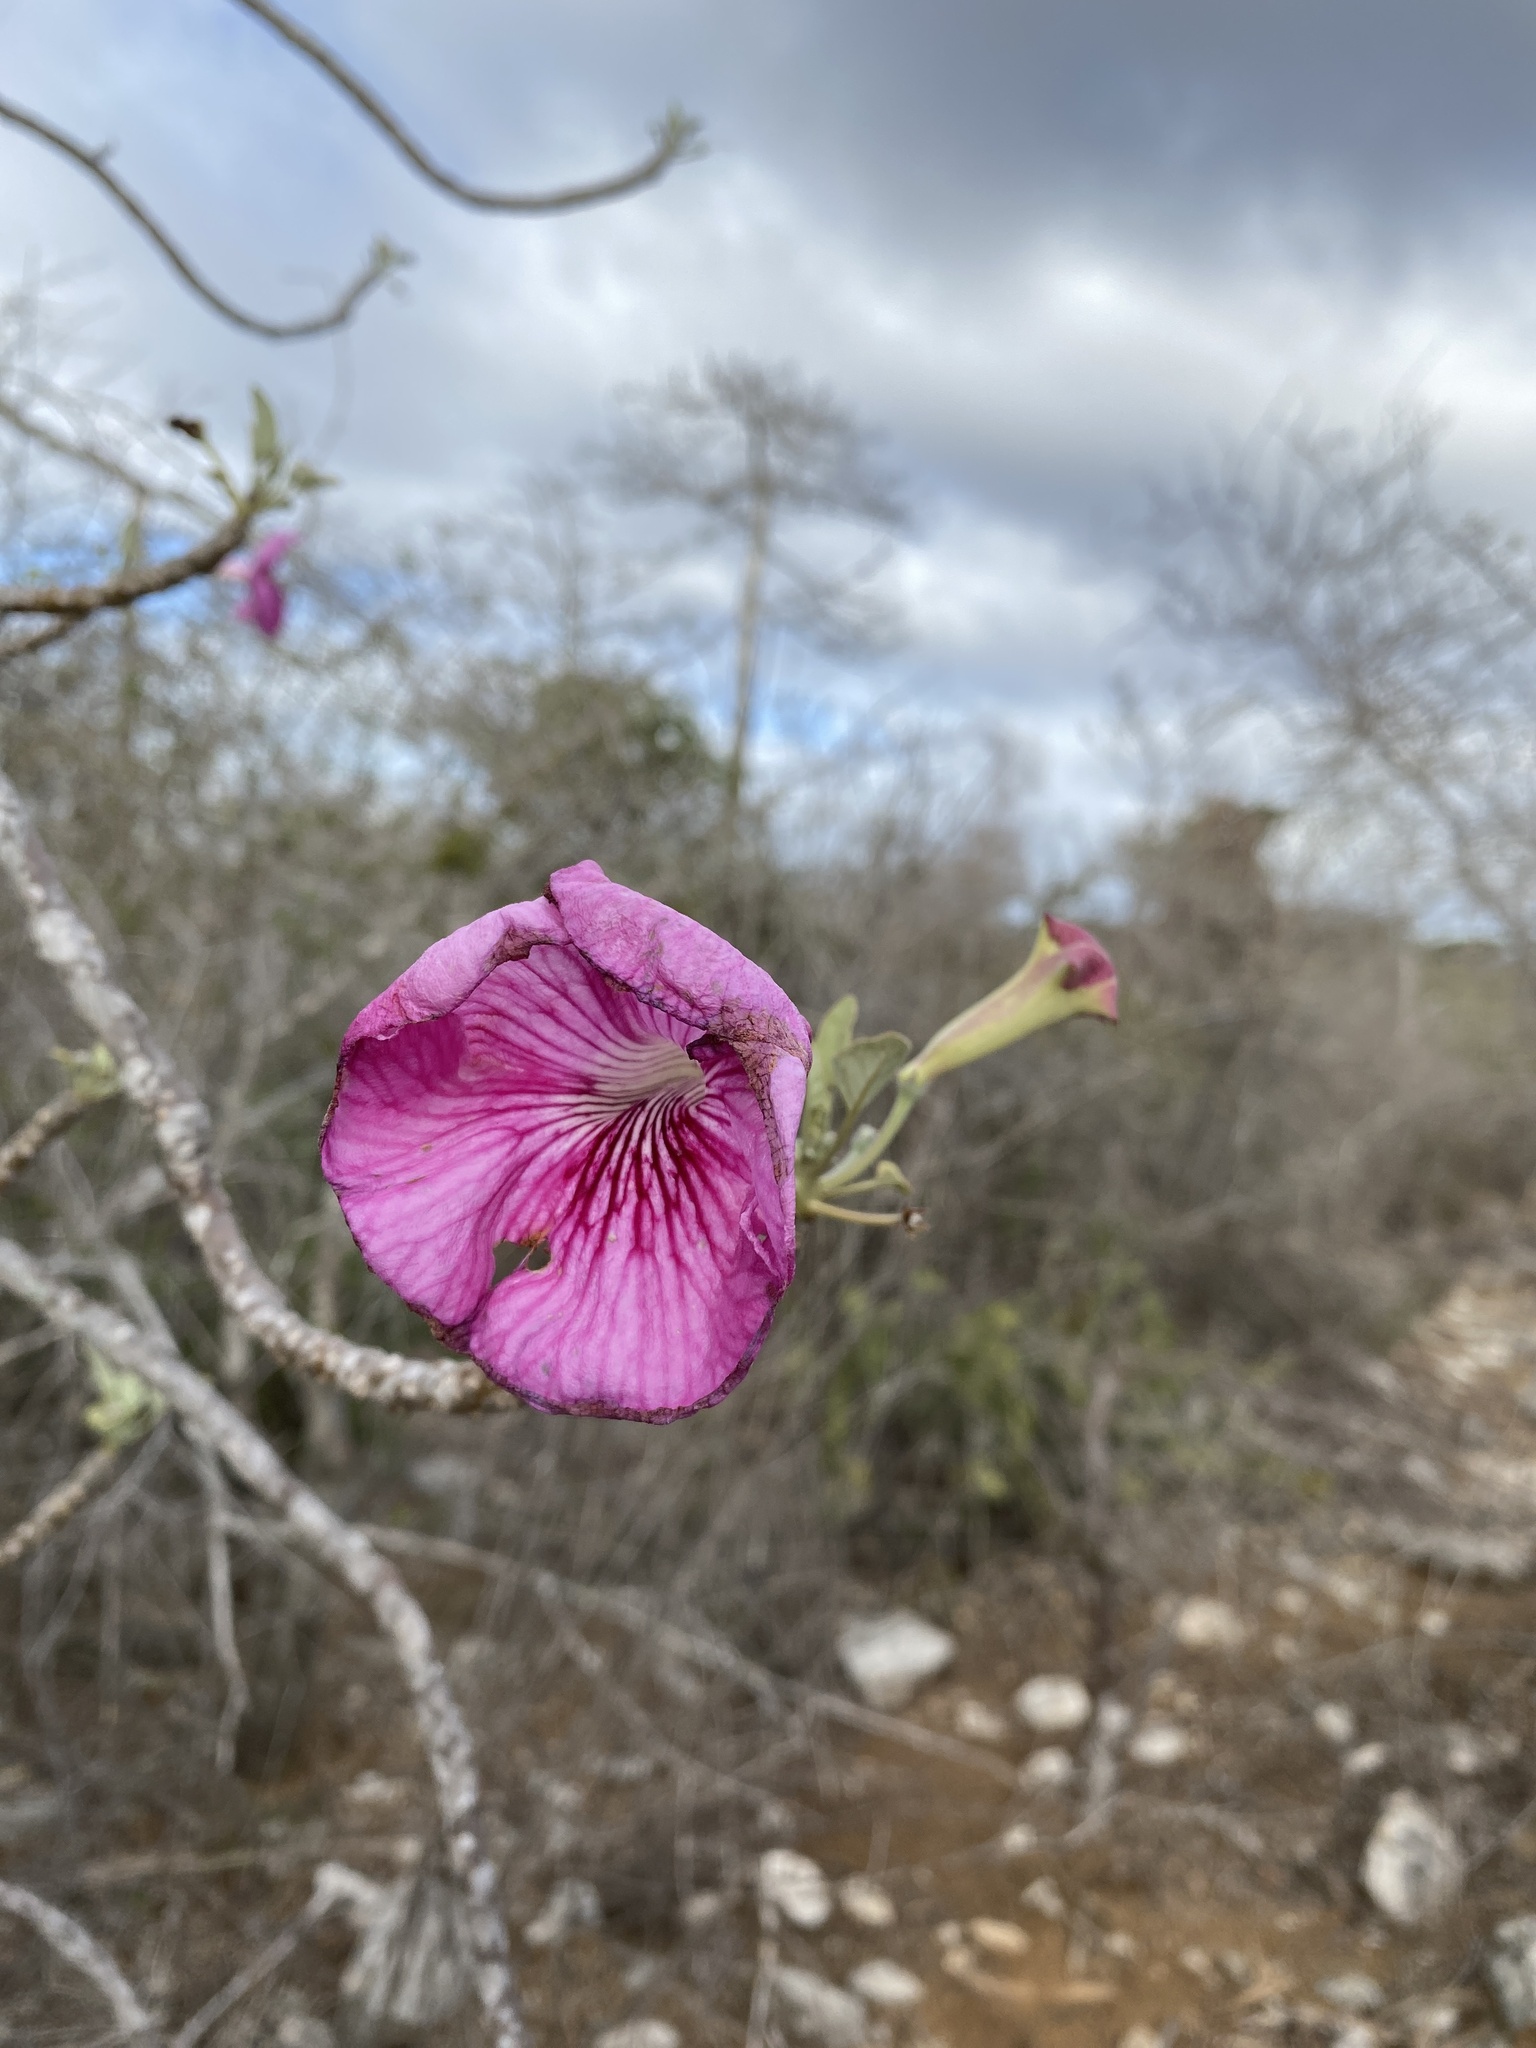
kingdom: Plantae
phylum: Tracheophyta
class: Magnoliopsida
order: Lamiales
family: Pedaliaceae
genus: Uncarina
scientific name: Uncarina stellulifera
